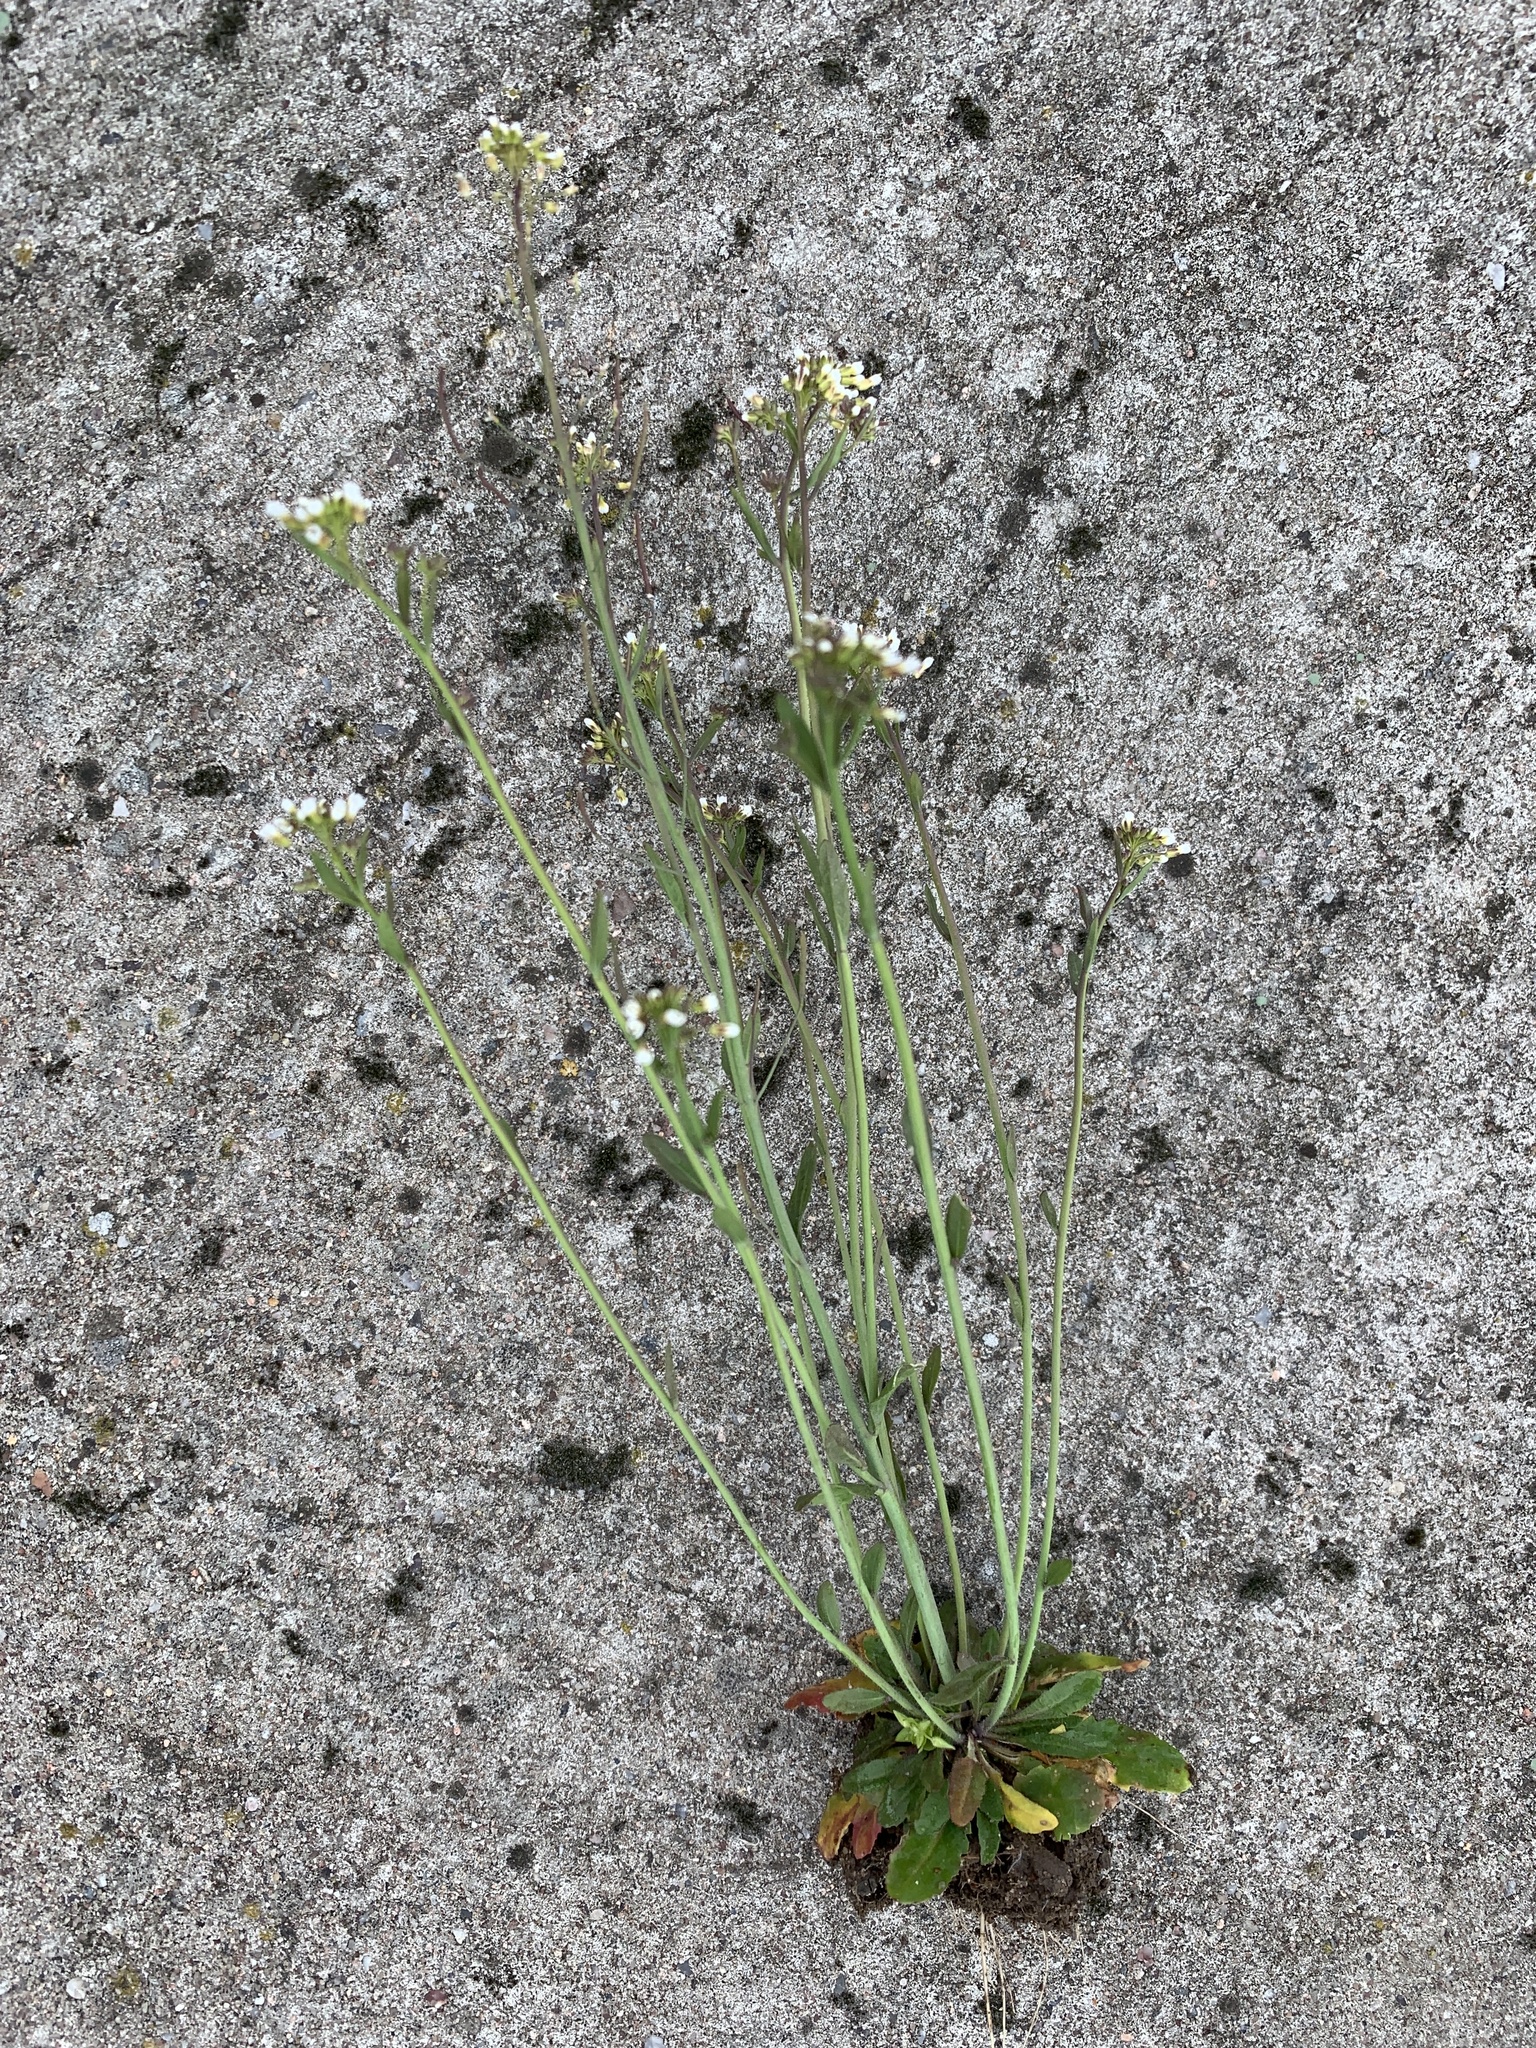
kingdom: Plantae
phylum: Tracheophyta
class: Magnoliopsida
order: Brassicales
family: Brassicaceae
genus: Arabidopsis
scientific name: Arabidopsis thaliana
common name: Thale cress
